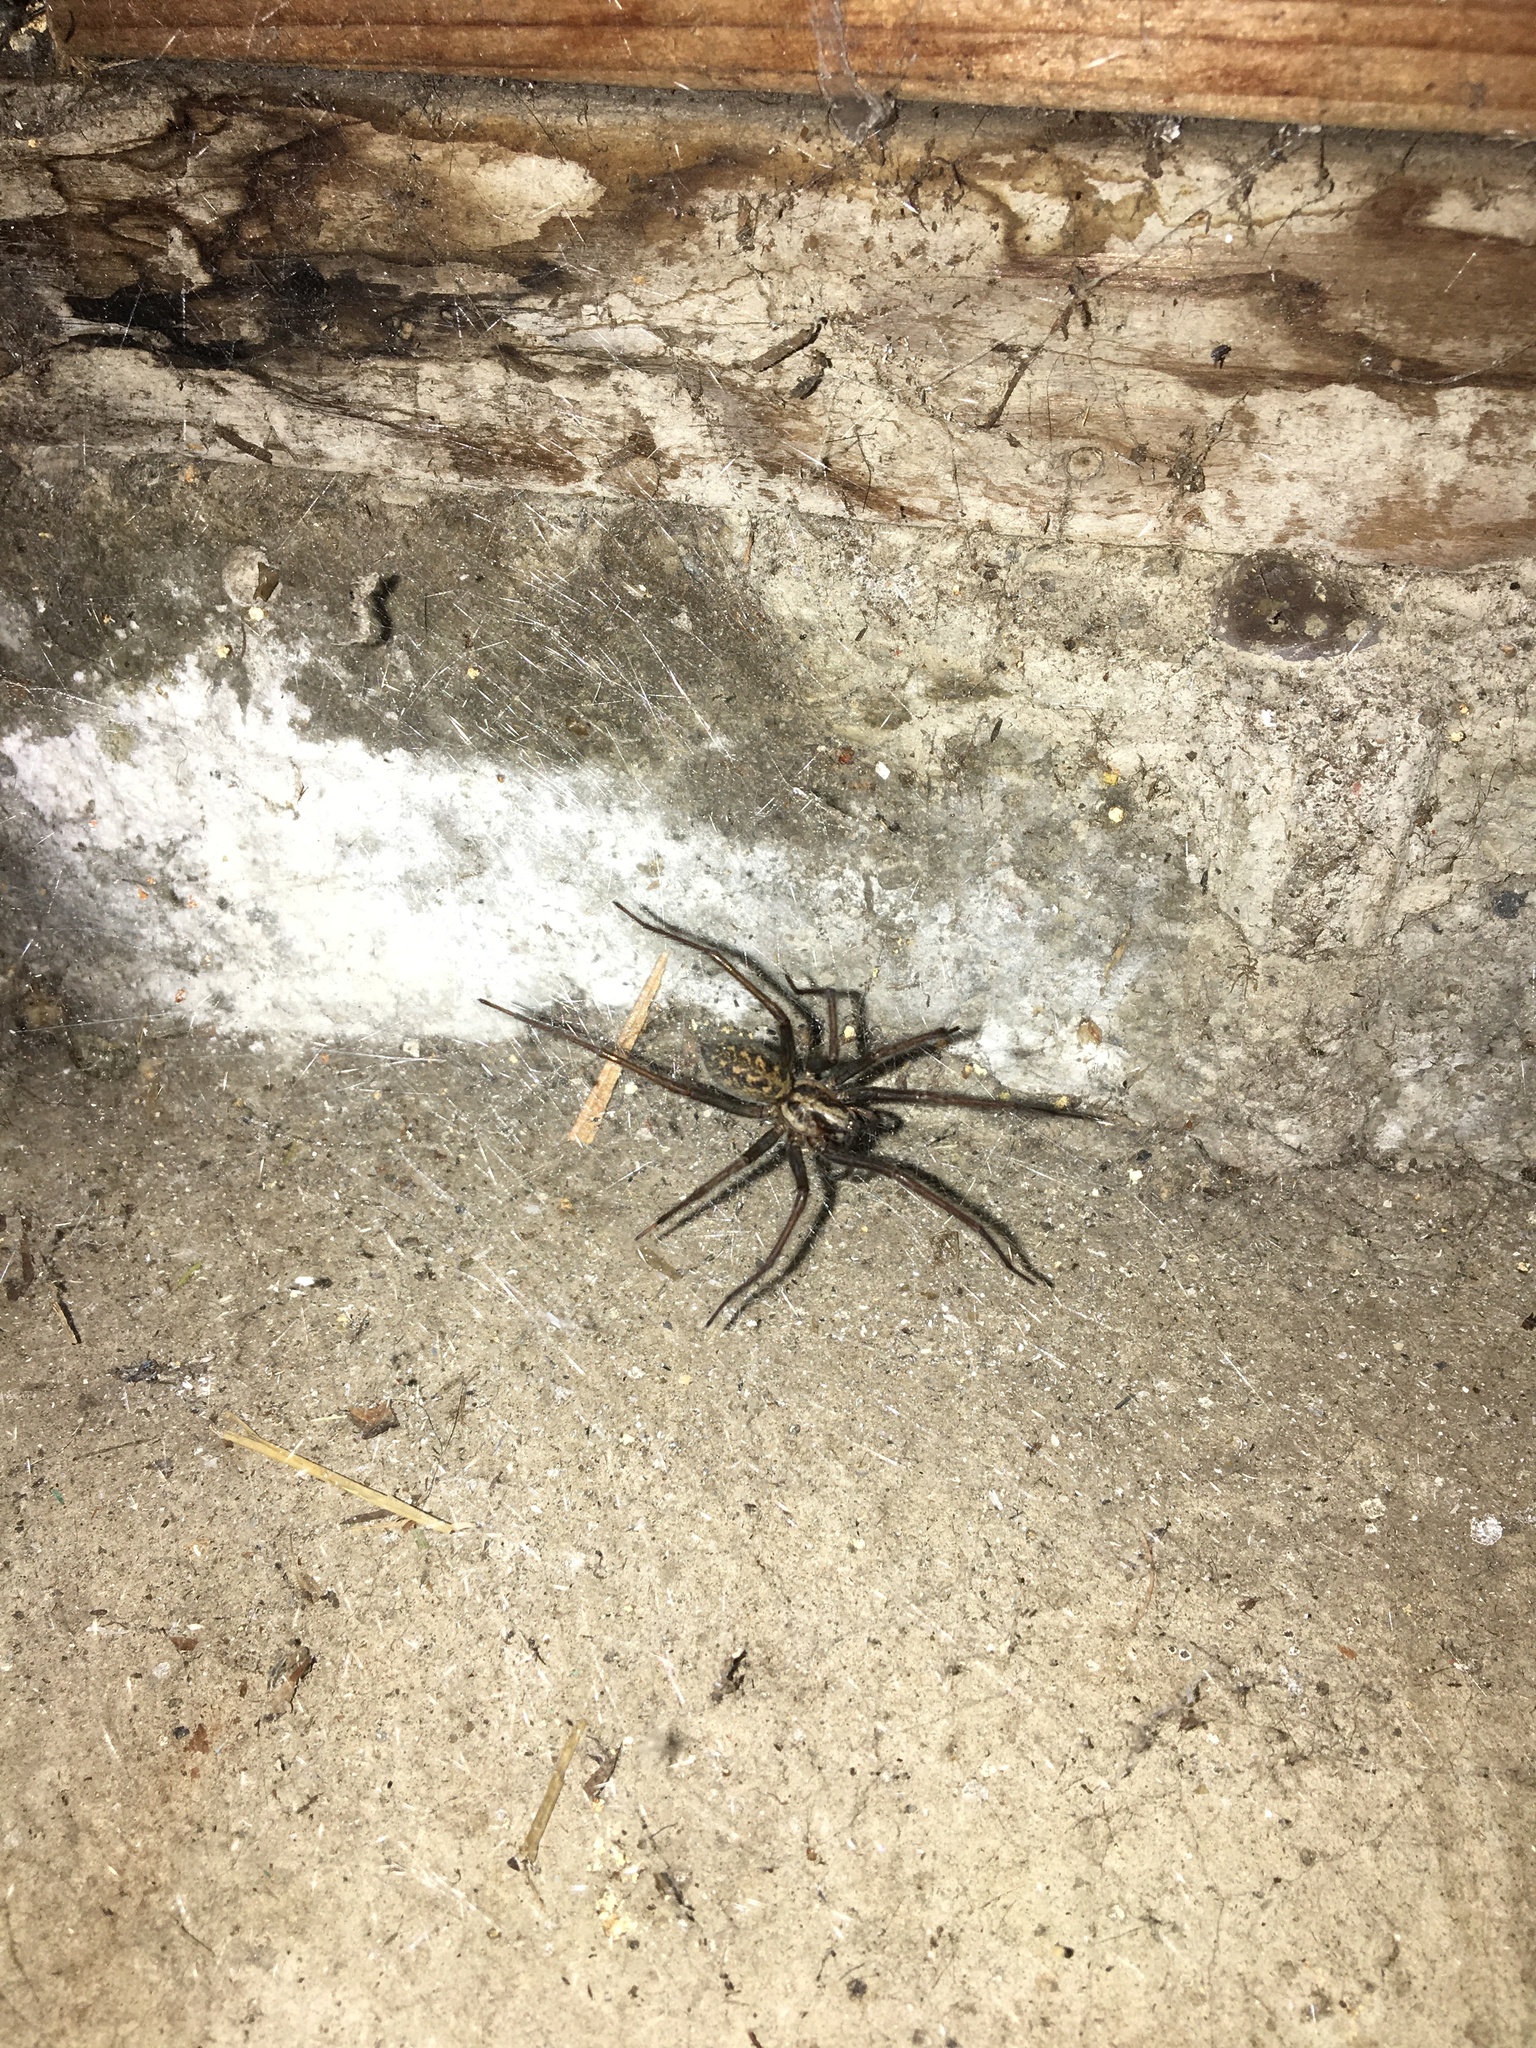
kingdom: Animalia
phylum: Arthropoda
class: Arachnida
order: Araneae
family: Agelenidae
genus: Eratigena
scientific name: Eratigena duellica
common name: Giant house spider
